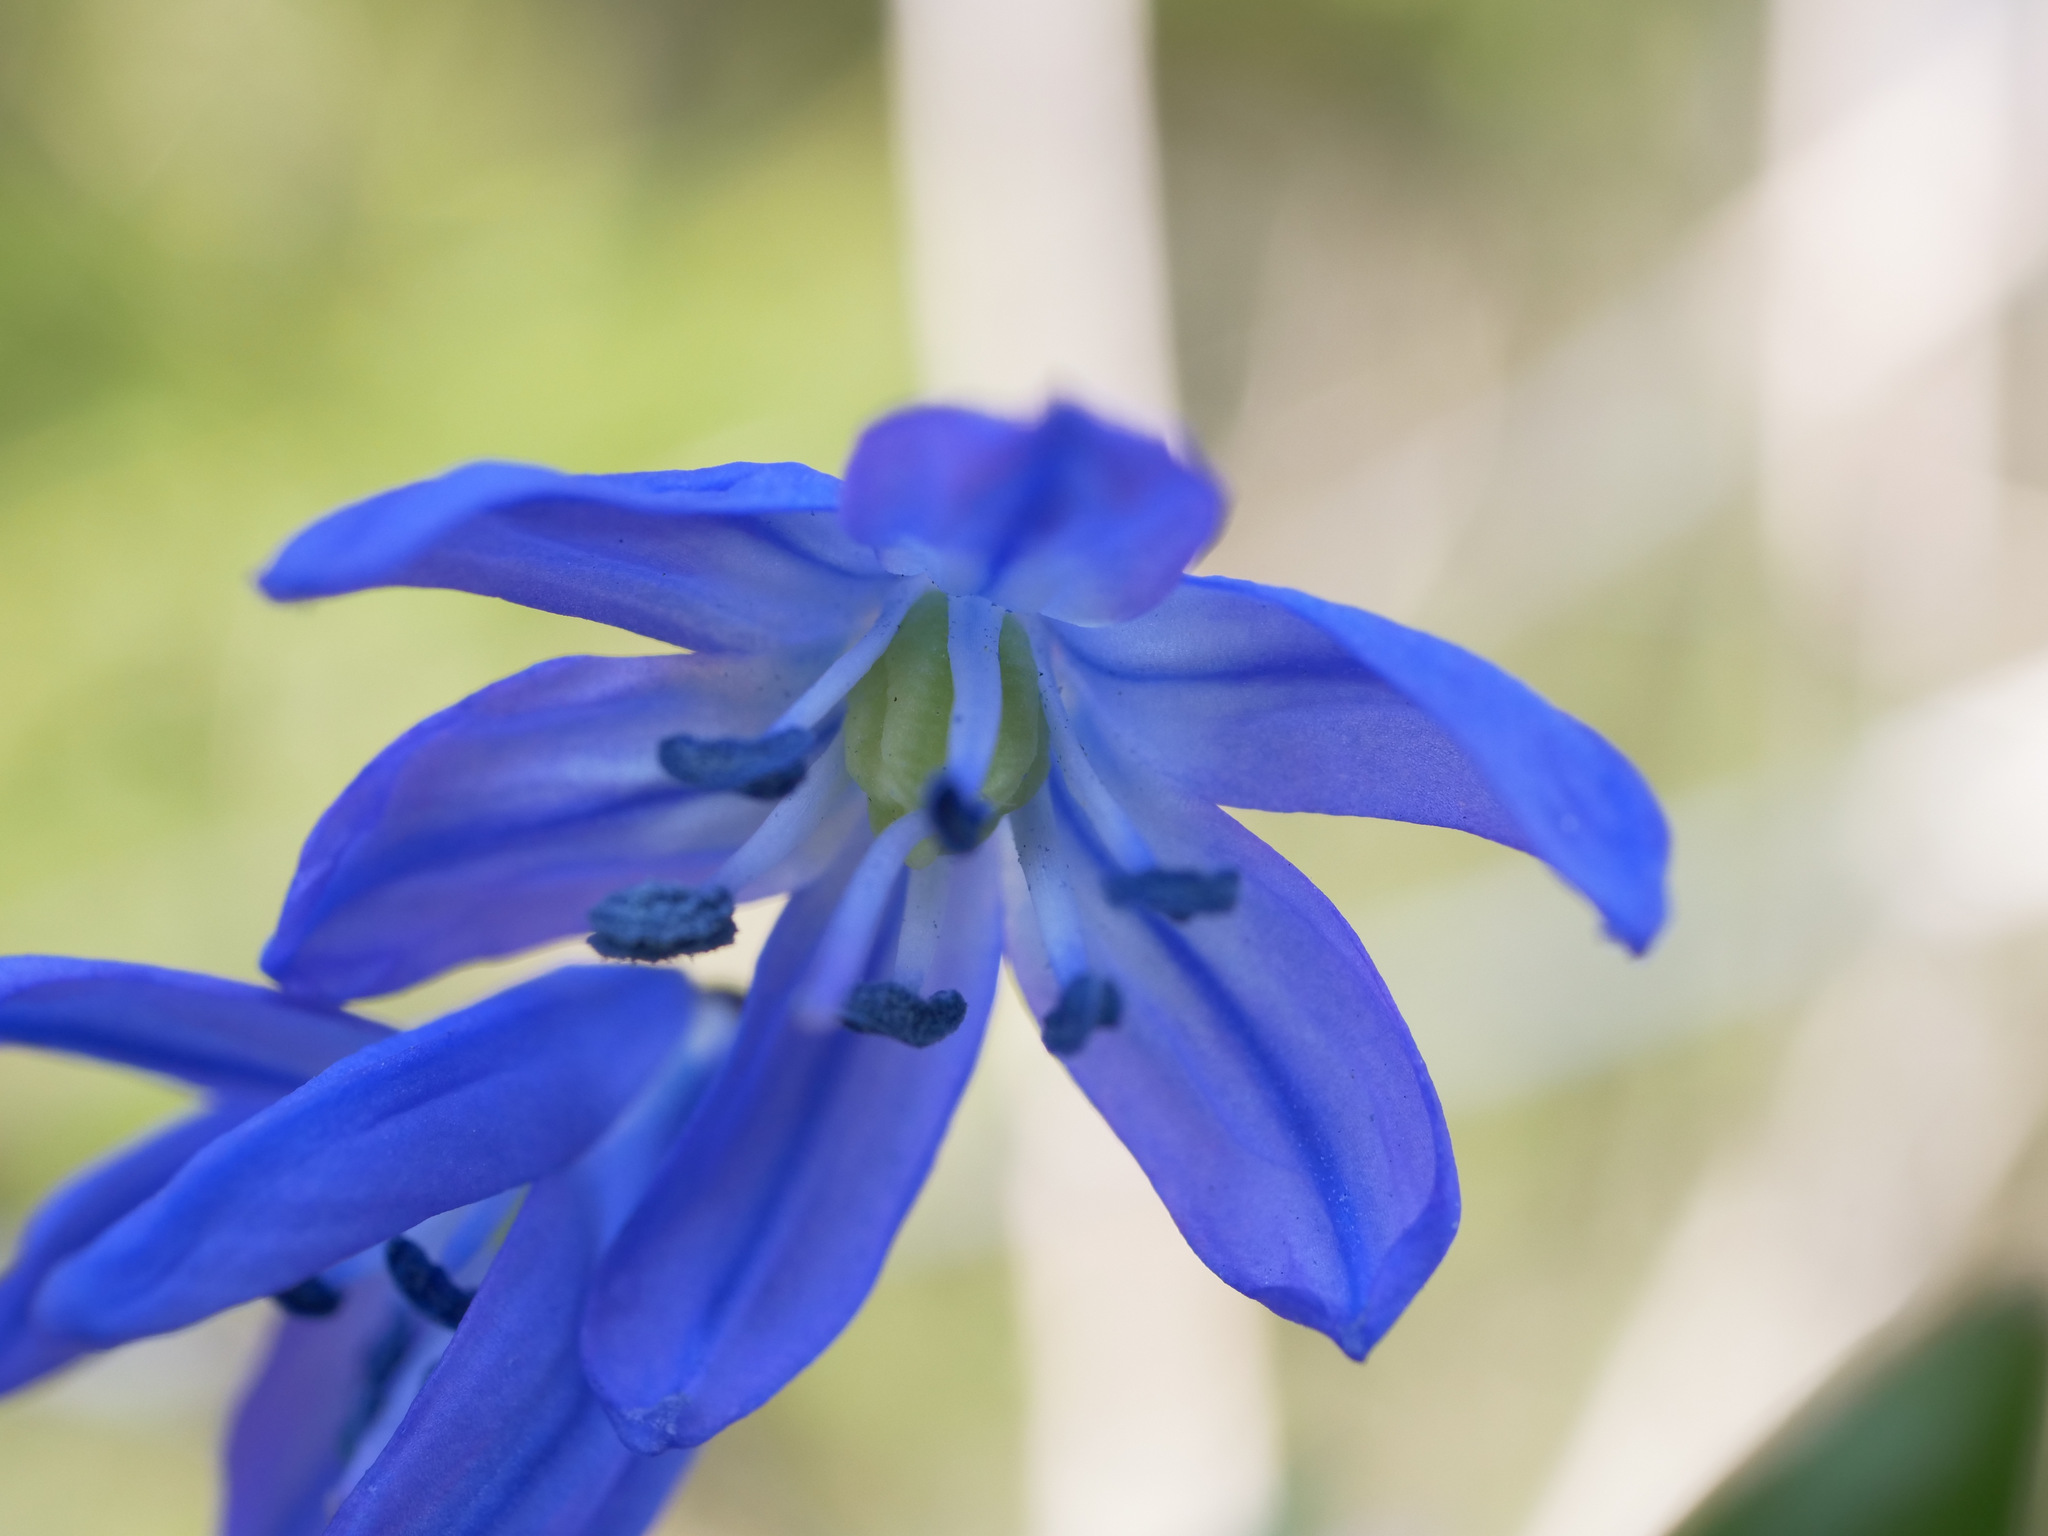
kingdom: Plantae
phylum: Tracheophyta
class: Liliopsida
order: Asparagales
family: Asparagaceae
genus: Scilla
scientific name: Scilla siberica
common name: Siberian squill
